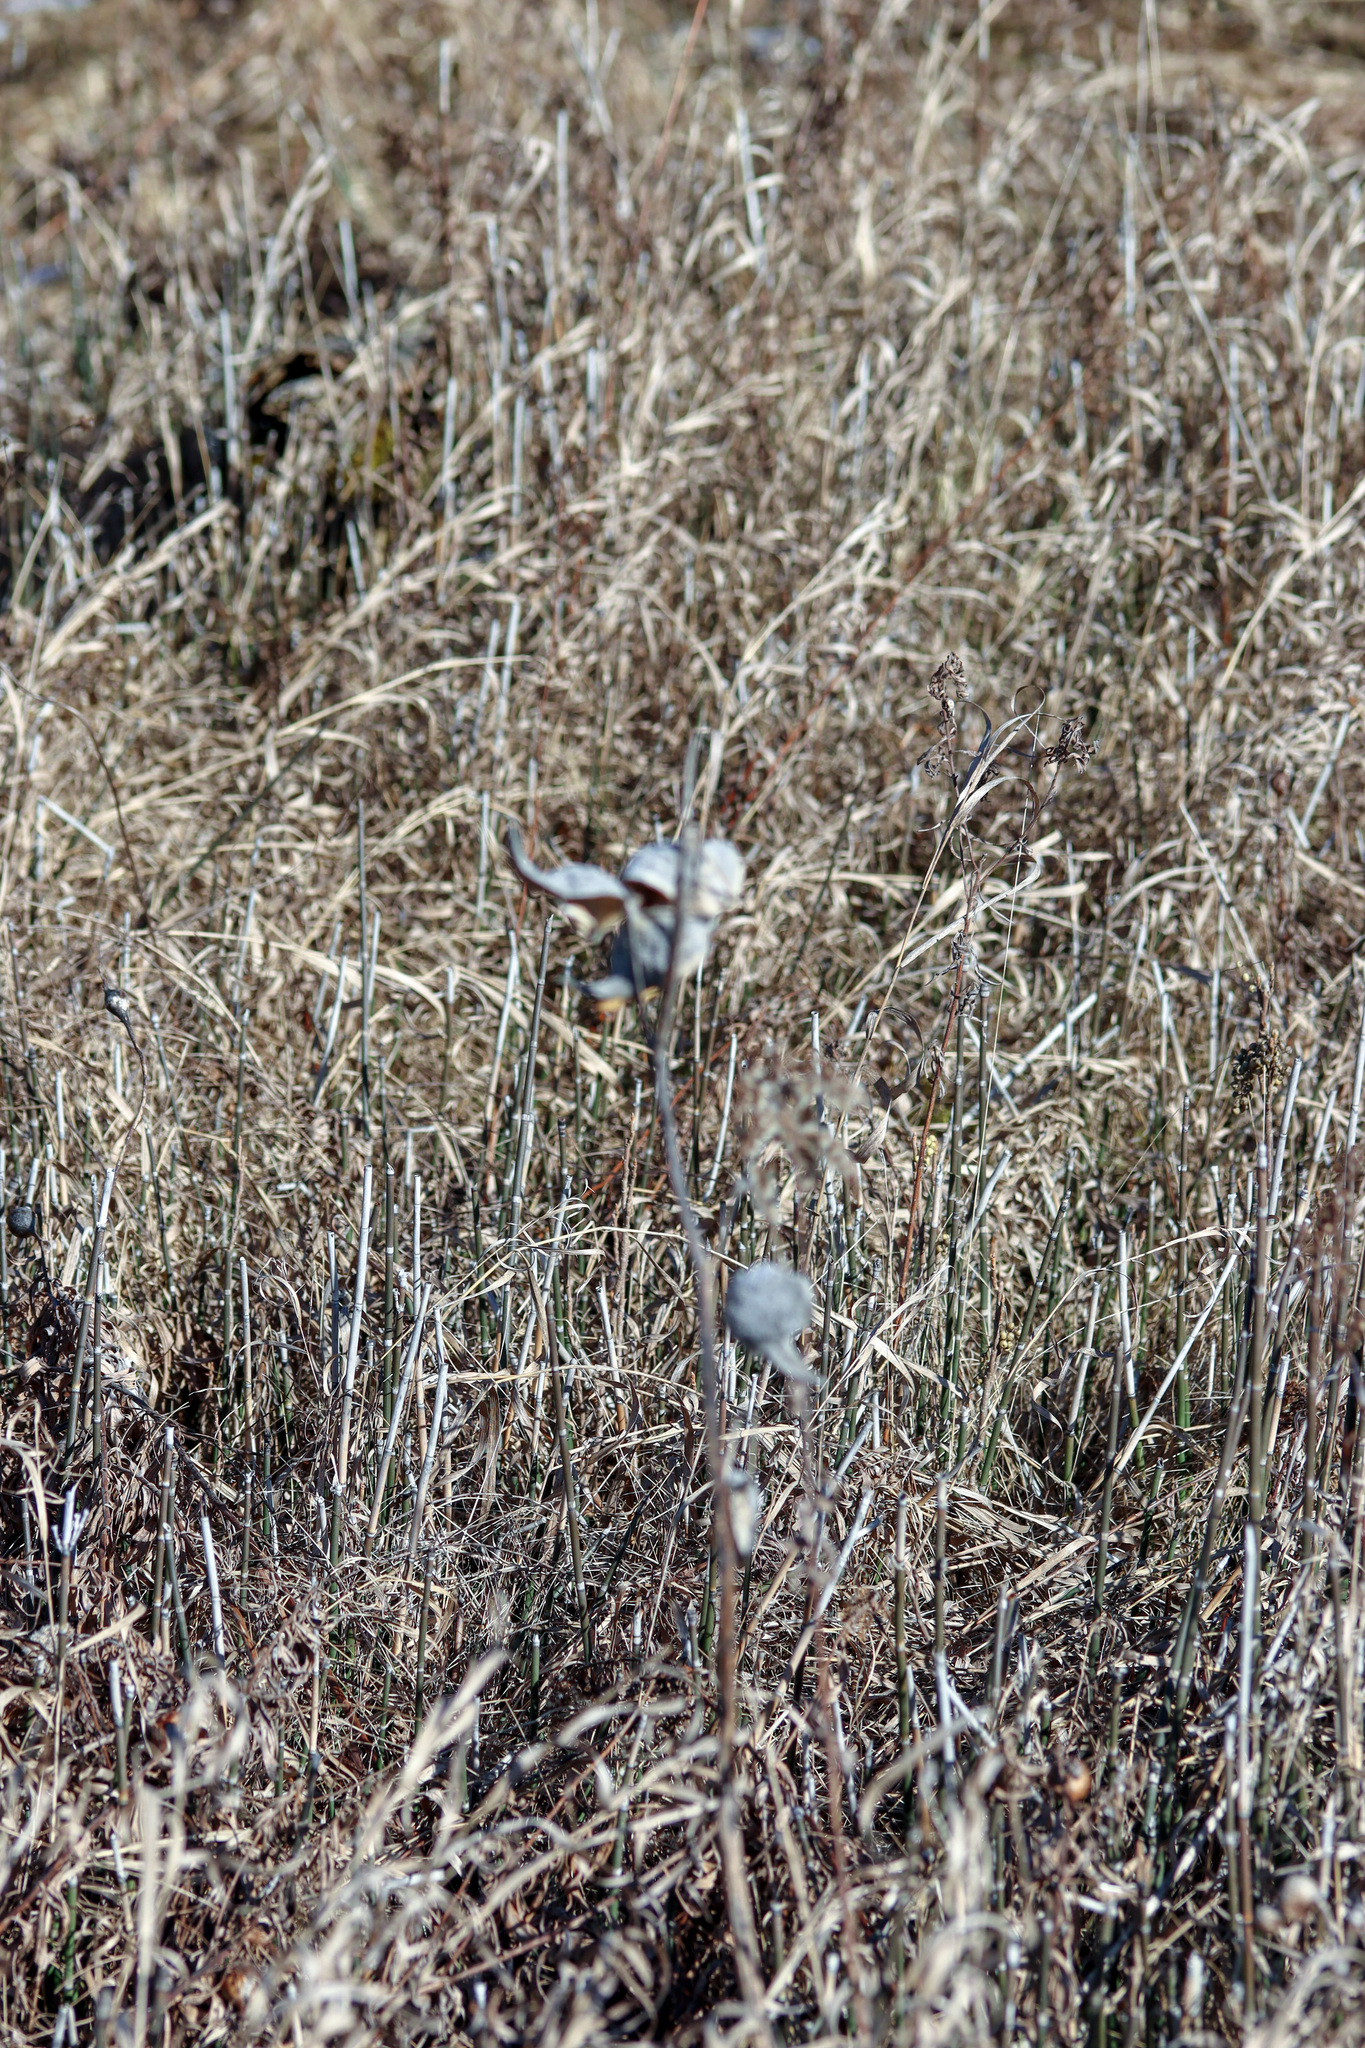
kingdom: Plantae
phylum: Tracheophyta
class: Magnoliopsida
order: Gentianales
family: Apocynaceae
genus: Asclepias
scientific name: Asclepias syriaca
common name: Common milkweed
